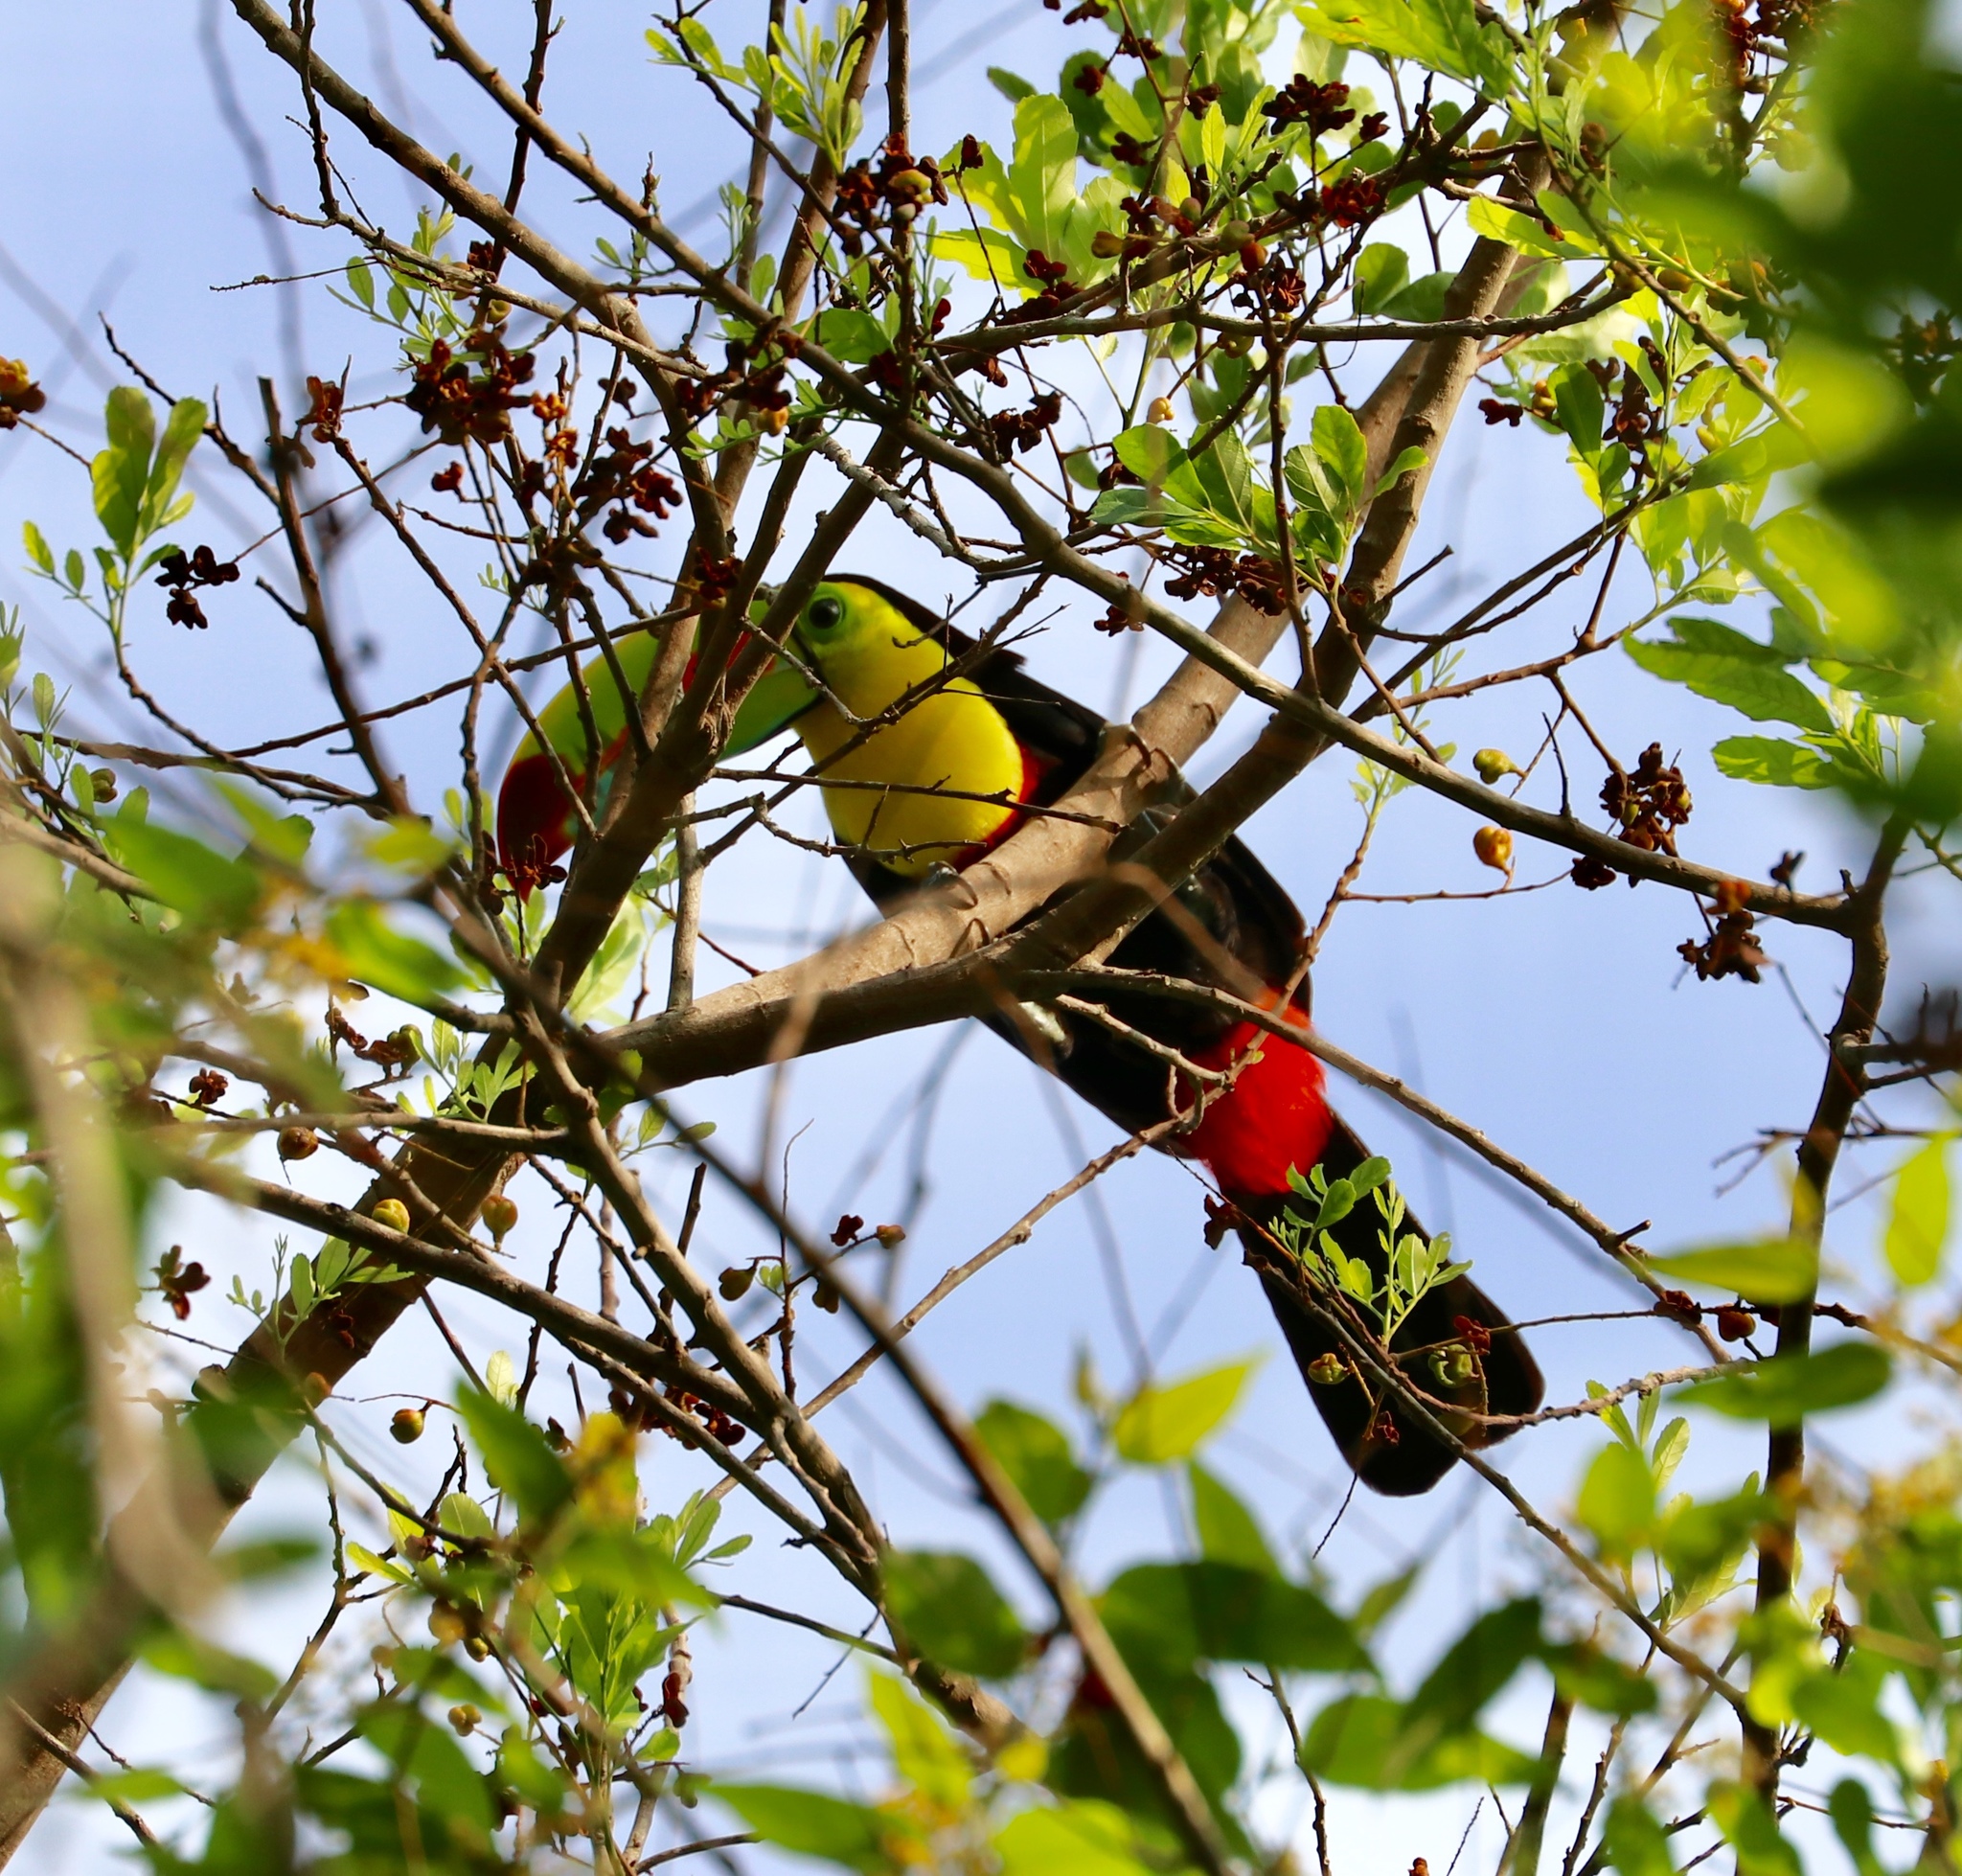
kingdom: Animalia
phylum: Chordata
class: Aves
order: Piciformes
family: Ramphastidae
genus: Ramphastos
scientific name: Ramphastos sulfuratus
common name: Keel-billed toucan
